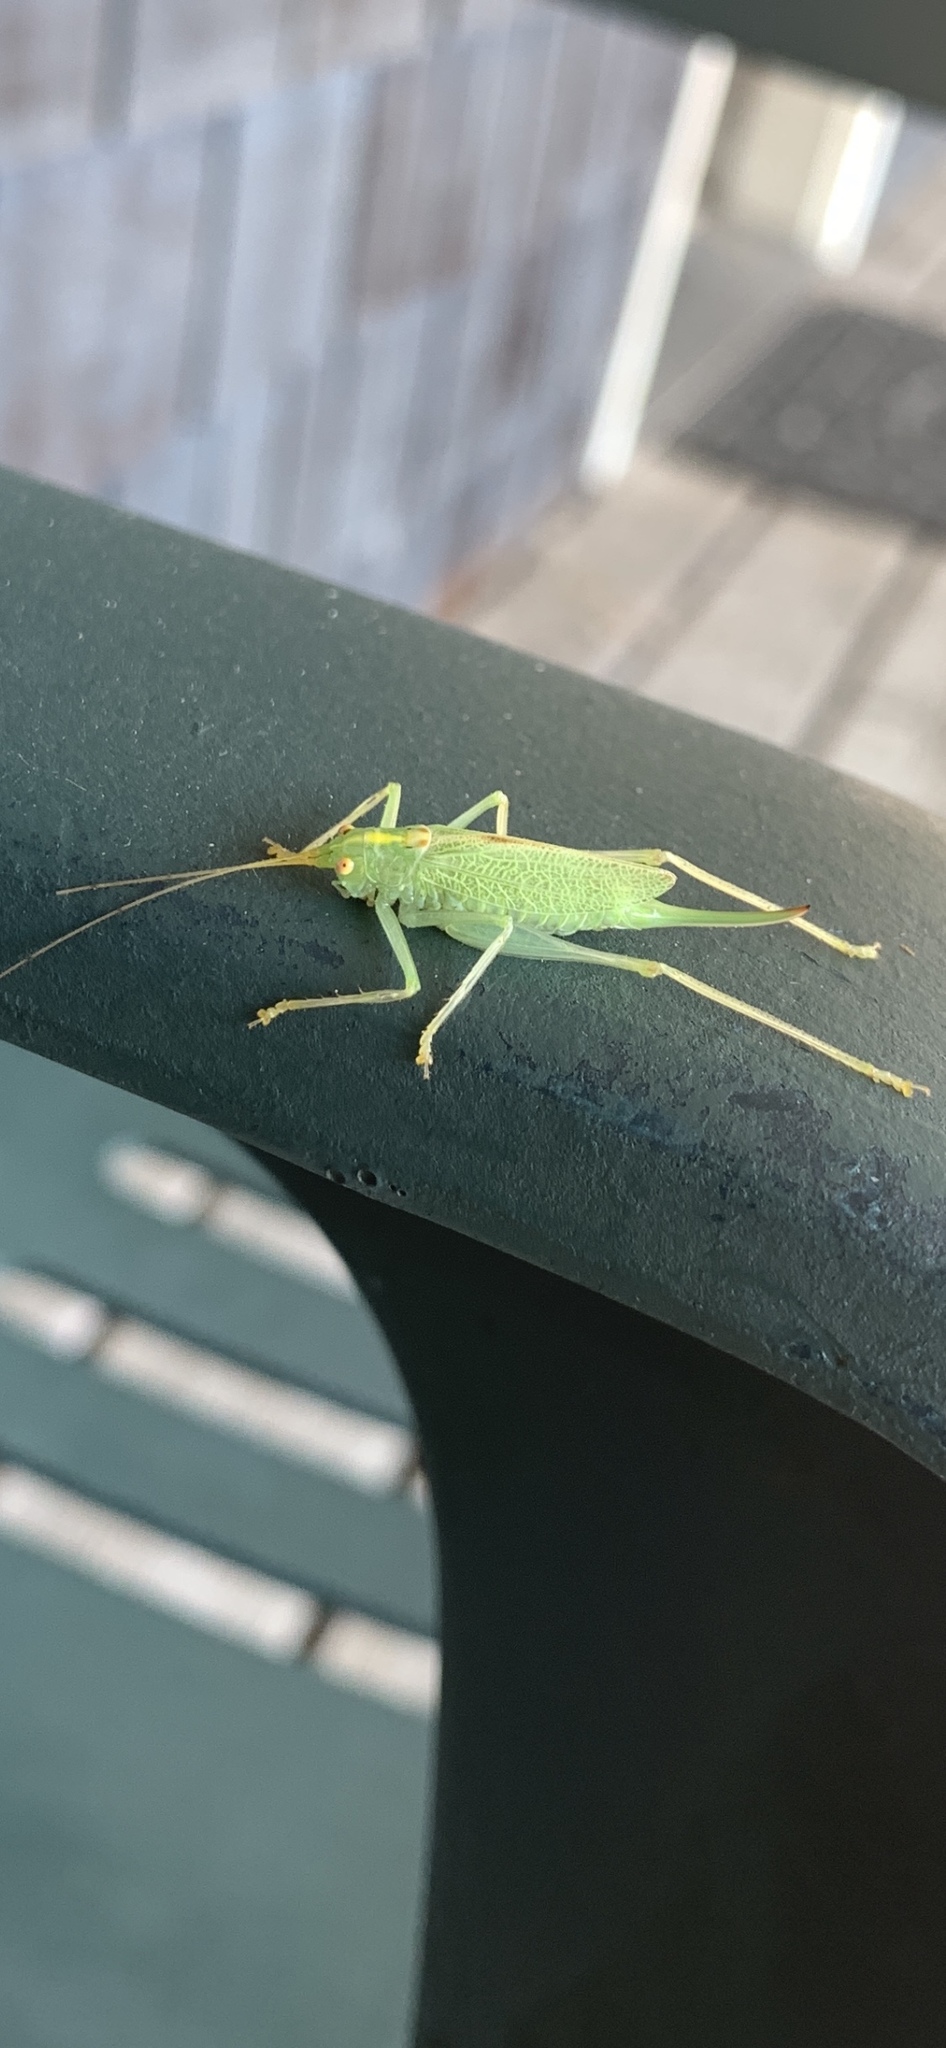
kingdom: Animalia
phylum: Arthropoda
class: Insecta
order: Orthoptera
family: Tettigoniidae
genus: Meconema
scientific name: Meconema thalassinum
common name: Oak bush-cricket
